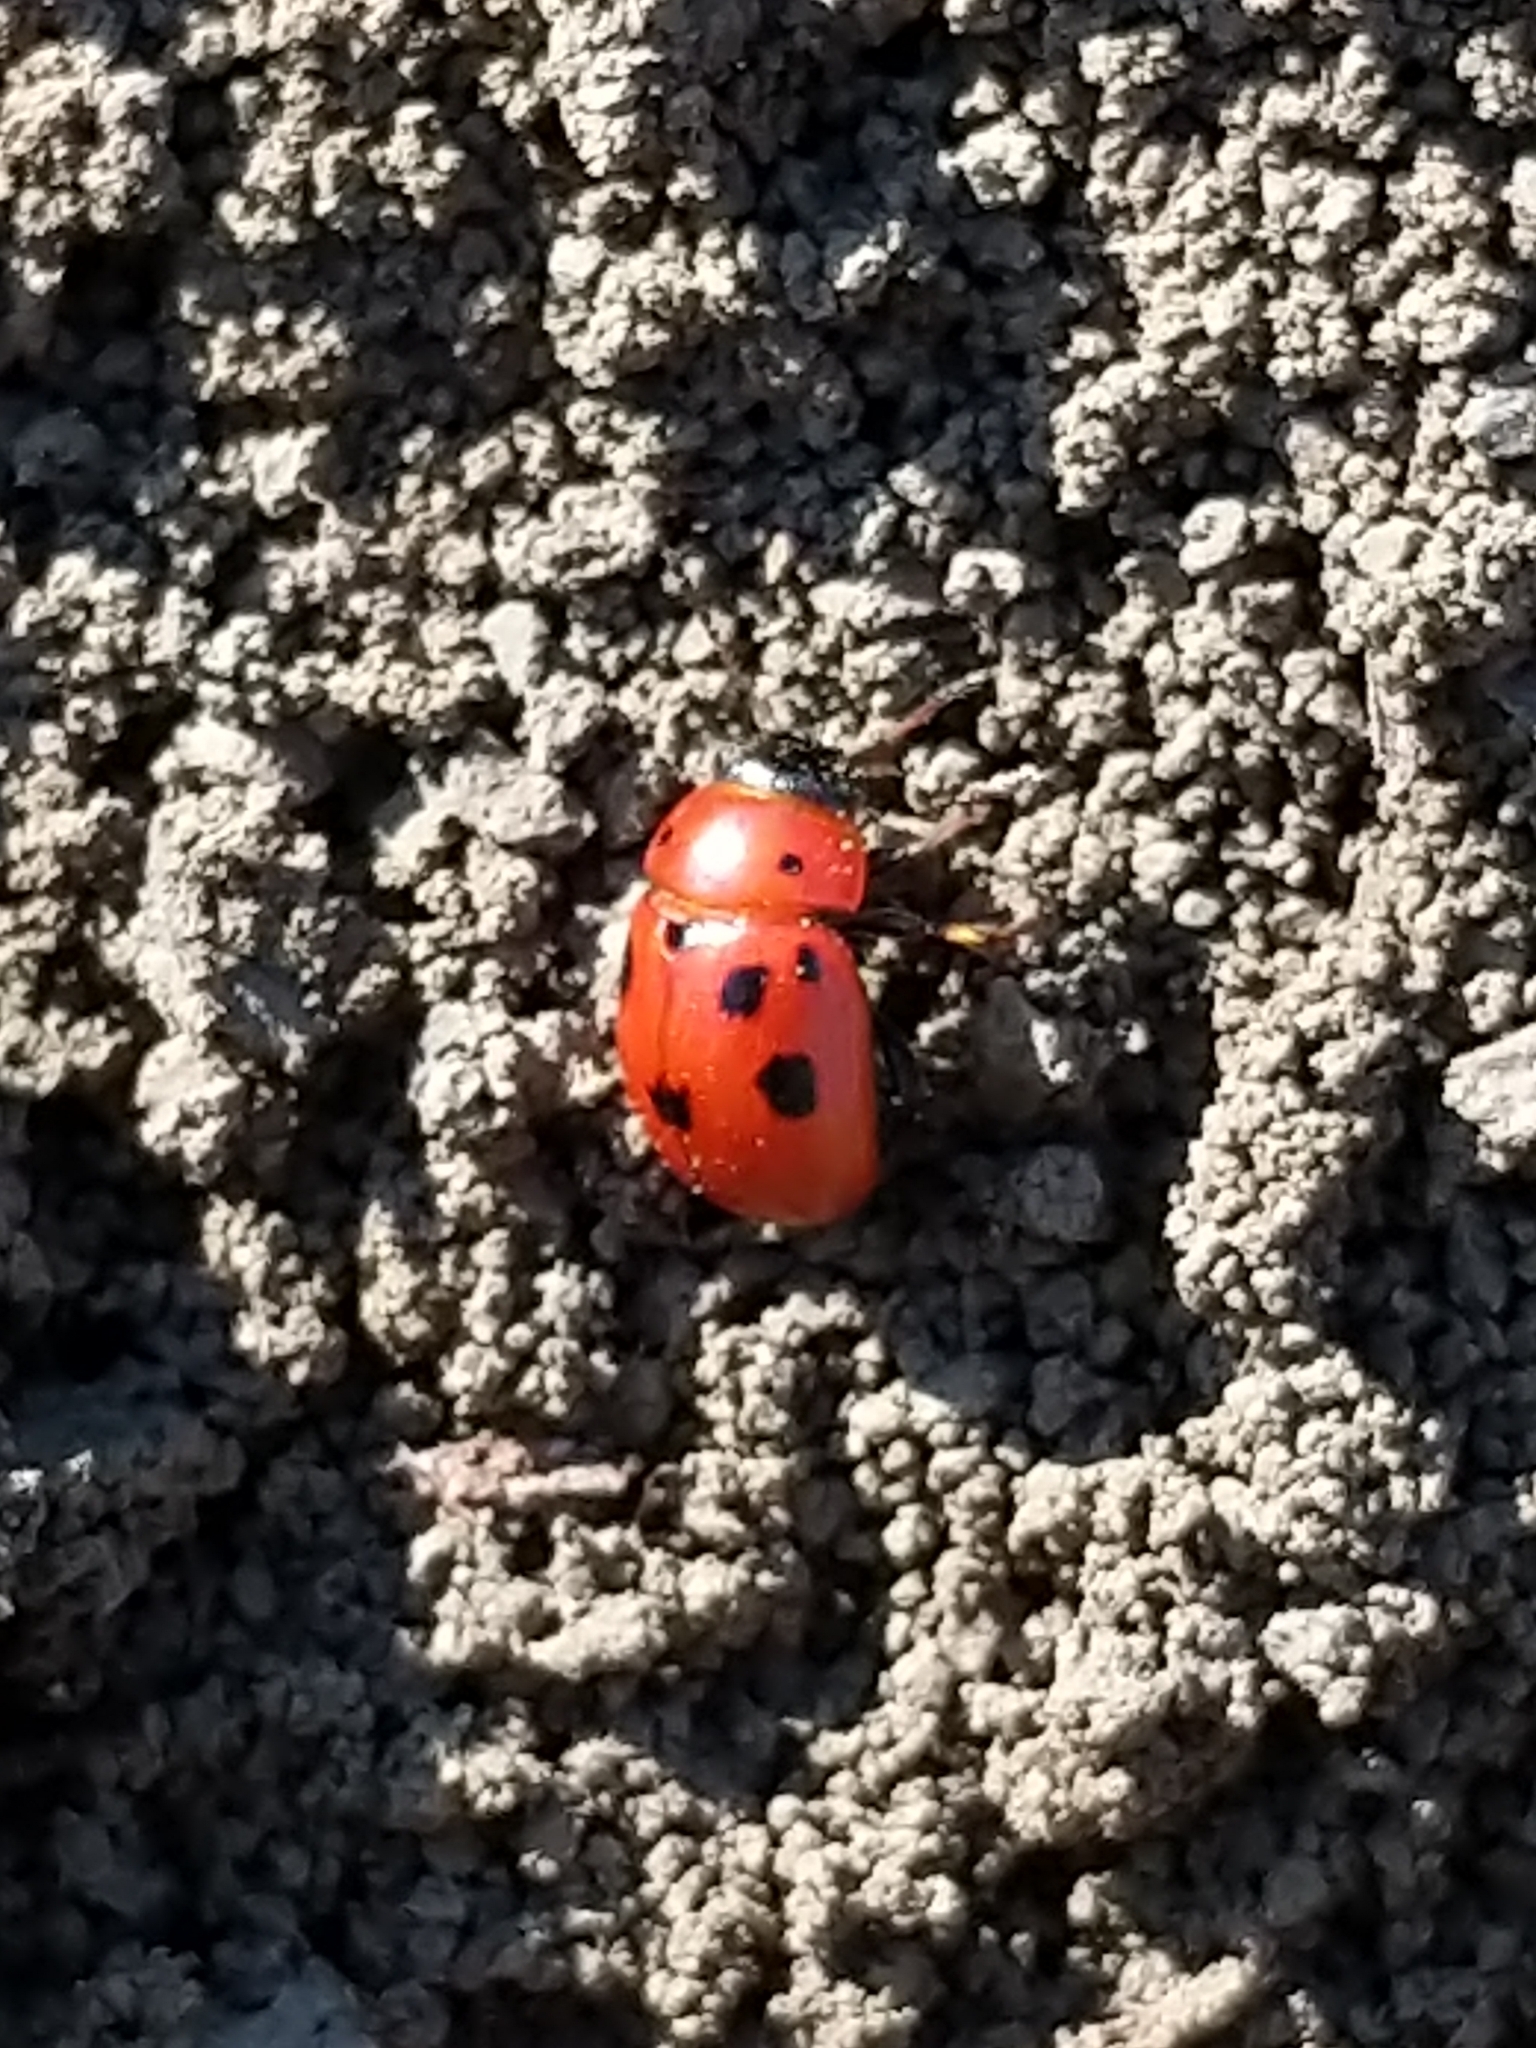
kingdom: Animalia
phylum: Arthropoda
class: Insecta
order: Coleoptera
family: Chrysomelidae
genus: Gonioctena
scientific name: Gonioctena fornicata
